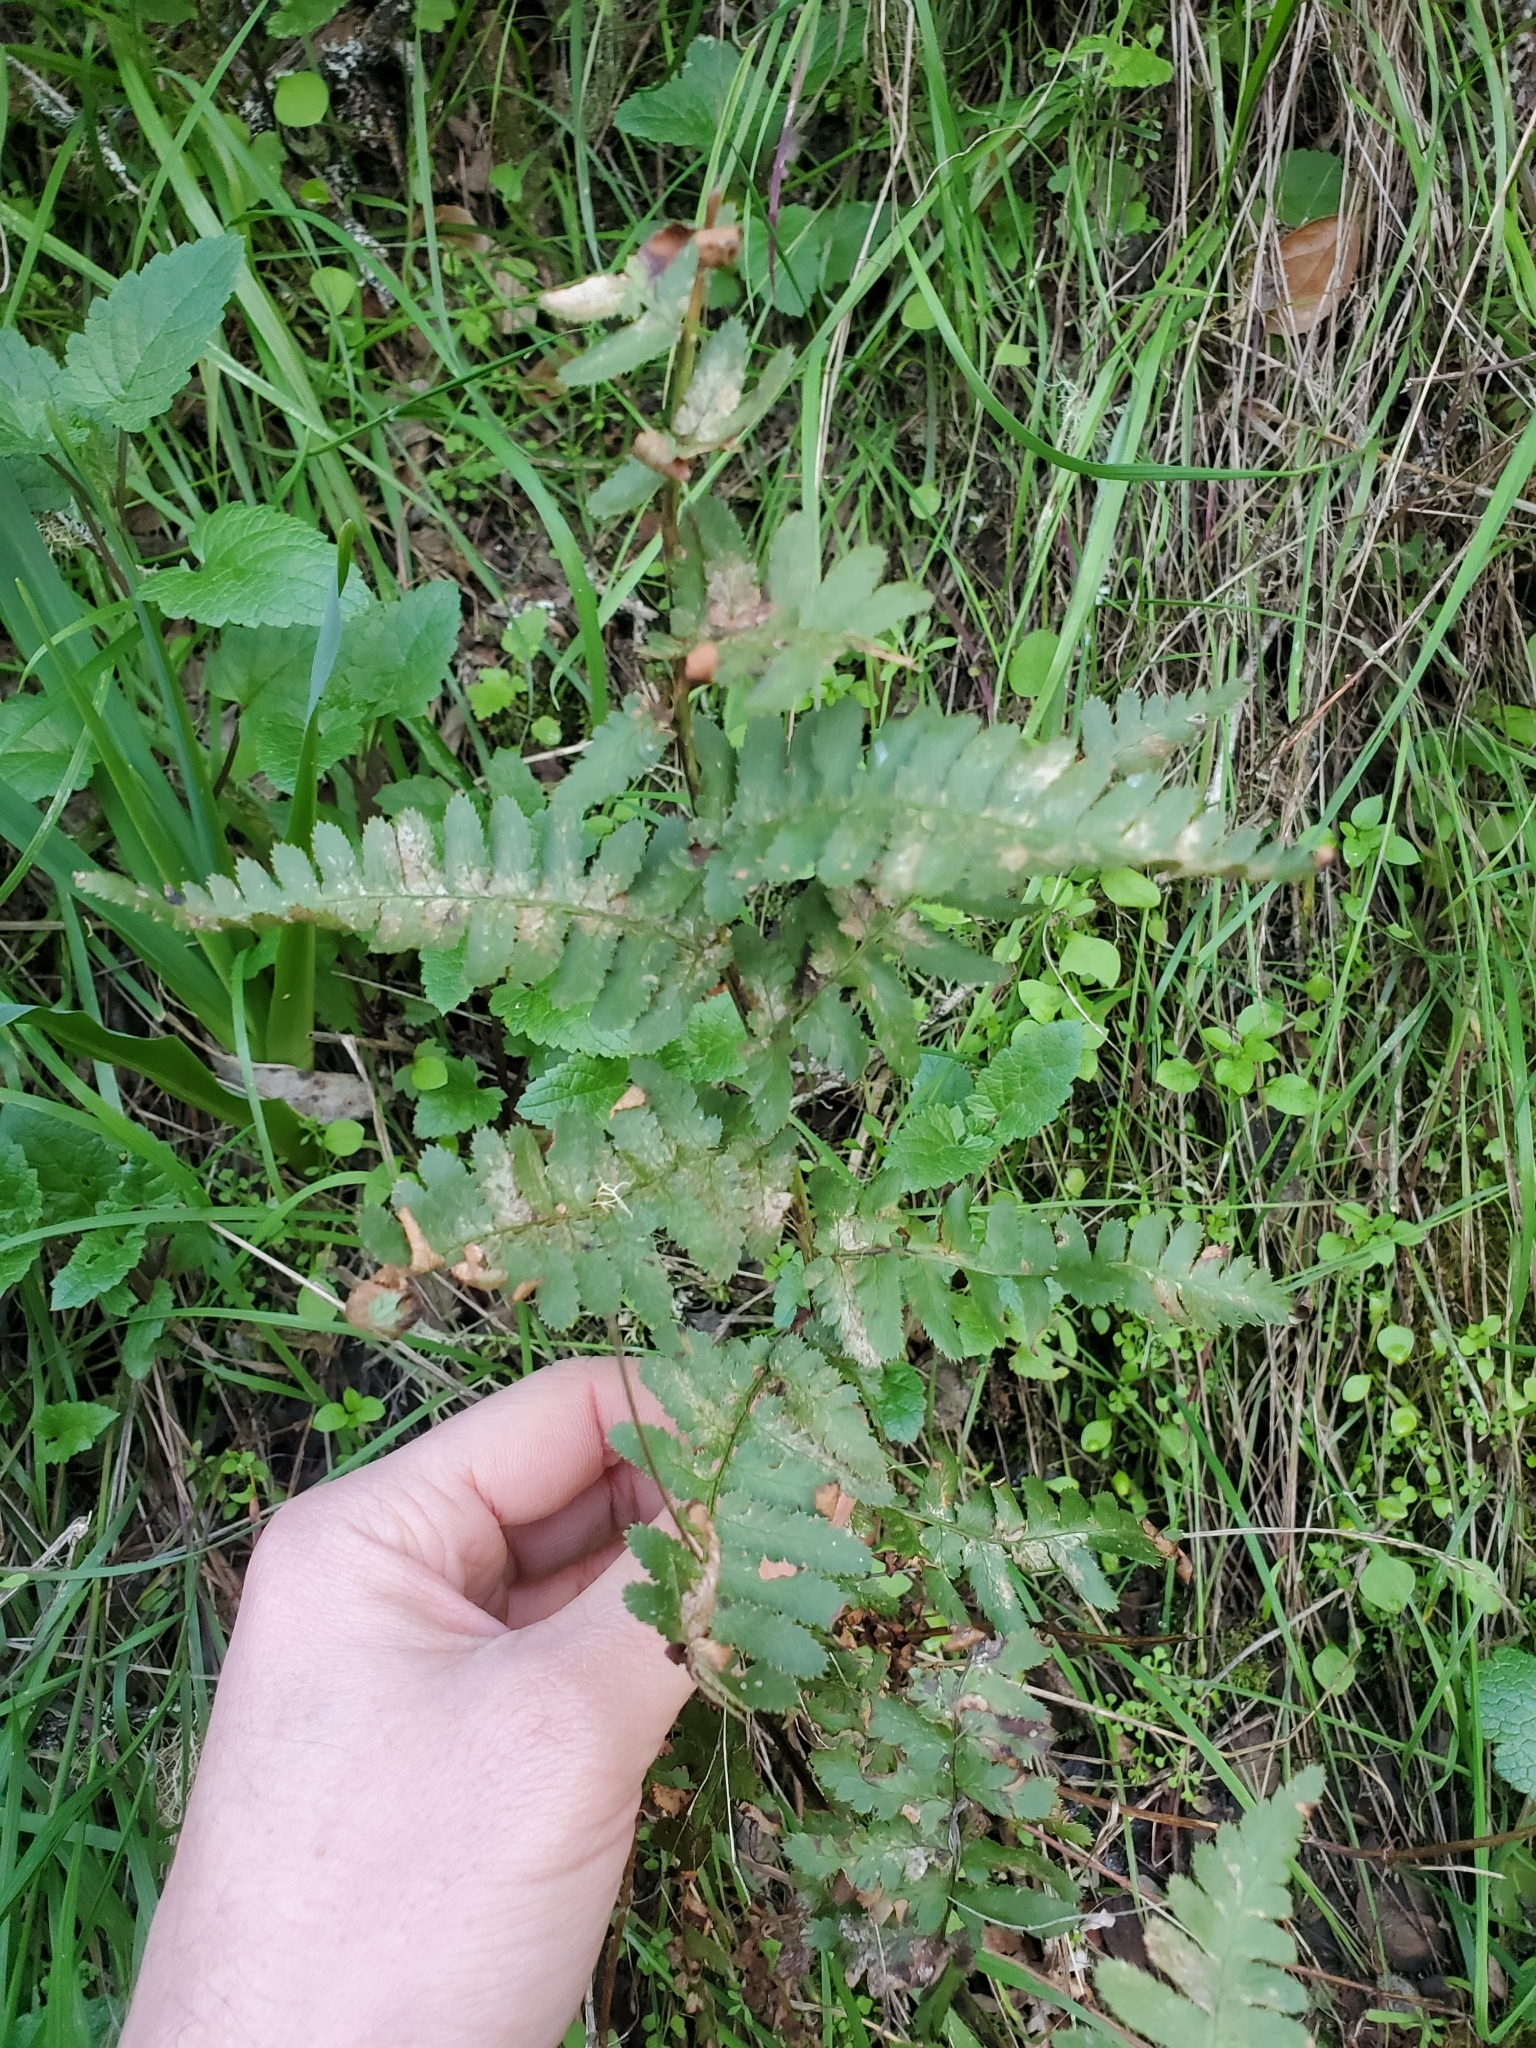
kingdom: Plantae
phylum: Tracheophyta
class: Polypodiopsida
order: Polypodiales
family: Dryopteridaceae
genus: Dryopteris
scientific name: Dryopteris arguta
